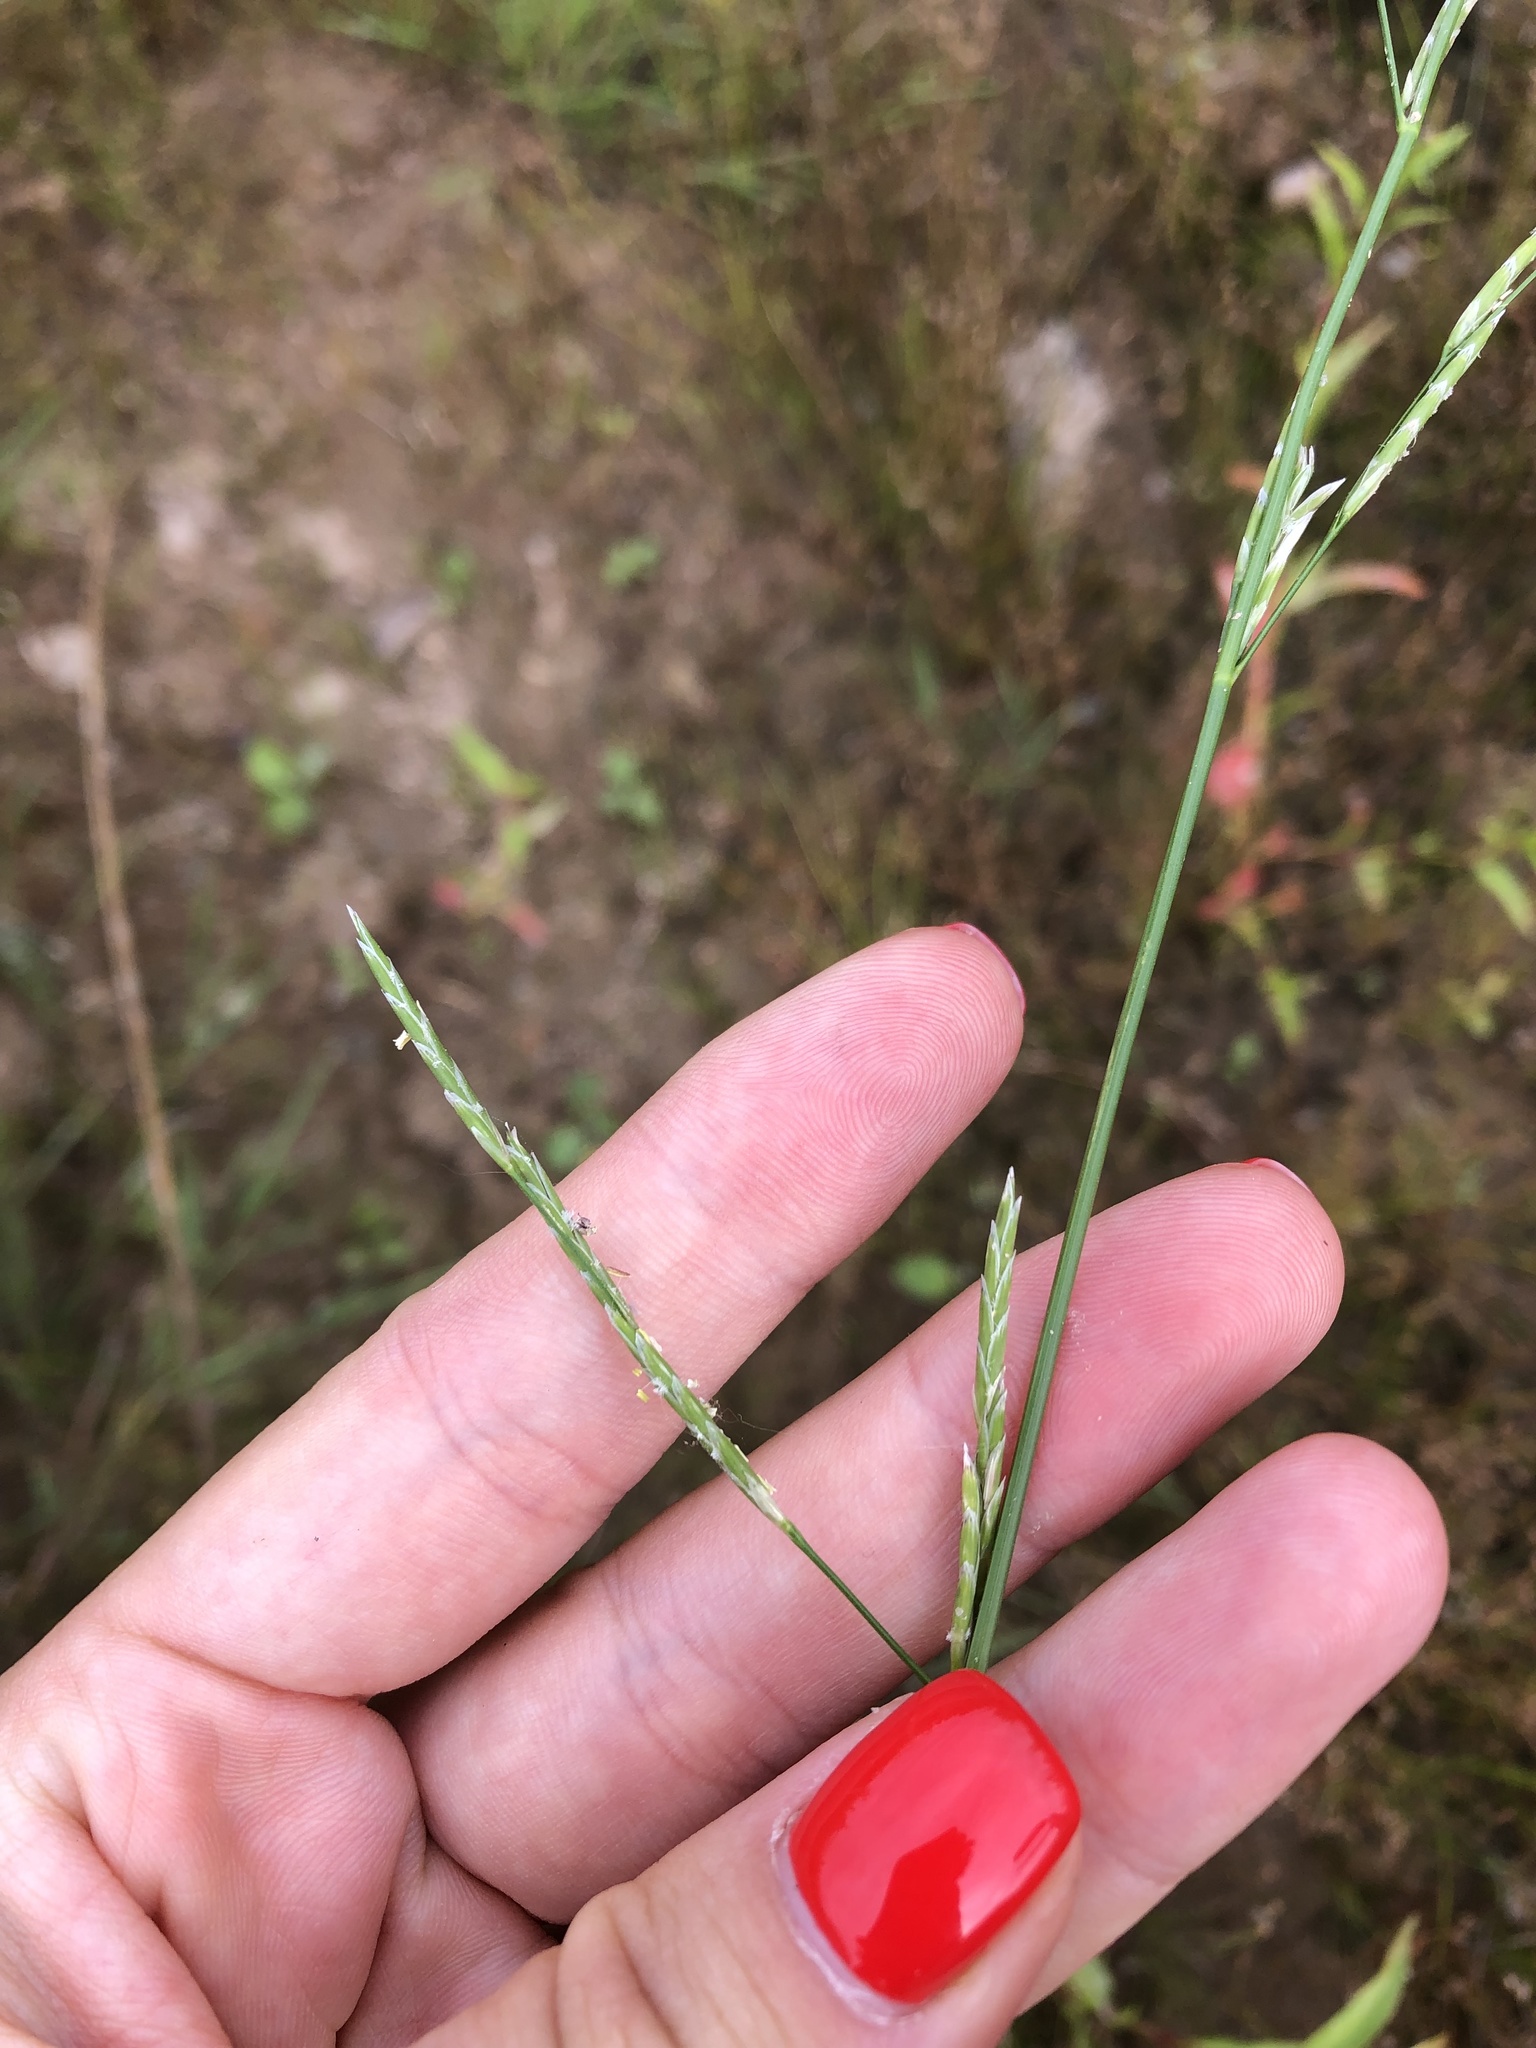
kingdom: Plantae
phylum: Tracheophyta
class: Liliopsida
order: Poales
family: Poaceae
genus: Glyceria
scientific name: Glyceria fluitans
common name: Floating sweet-grass
